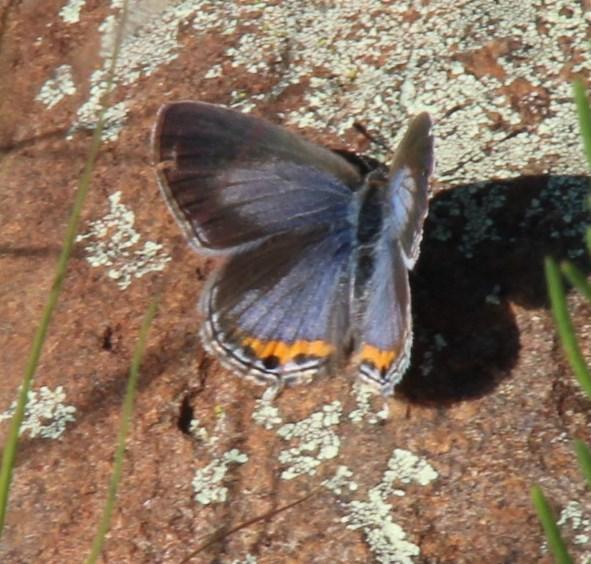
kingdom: Animalia
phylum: Arthropoda
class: Insecta
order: Lepidoptera
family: Lycaenidae
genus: Cupidopsis
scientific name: Cupidopsis jobates
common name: Tailed meadow blue
